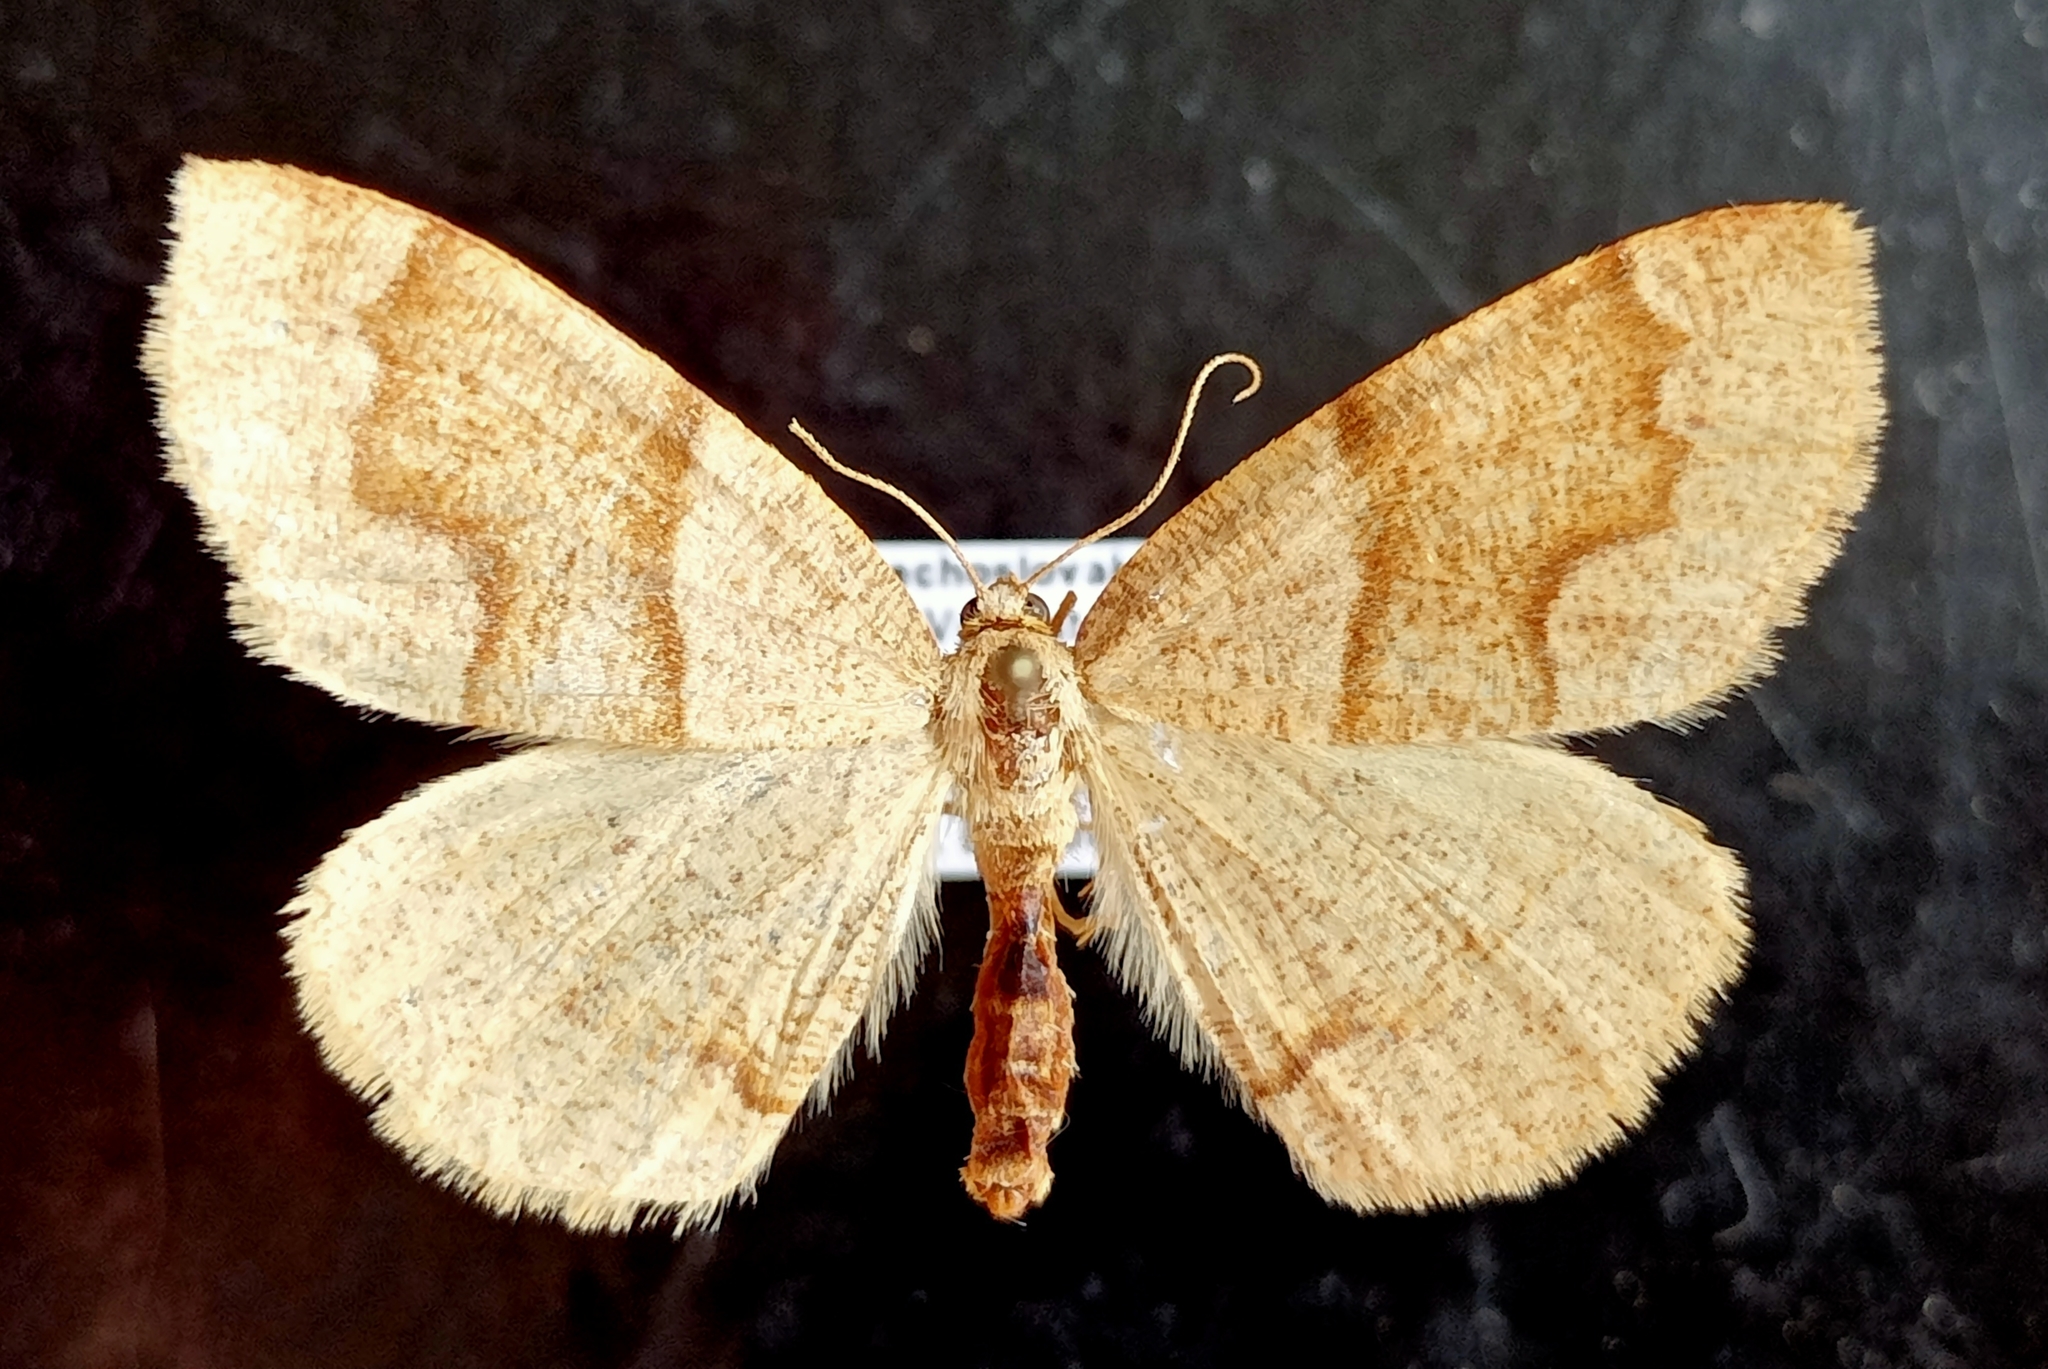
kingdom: Animalia
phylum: Arthropoda
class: Insecta
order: Lepidoptera
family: Geometridae
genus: Plagodis
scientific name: Plagodis pulveraria
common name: Barred umber
